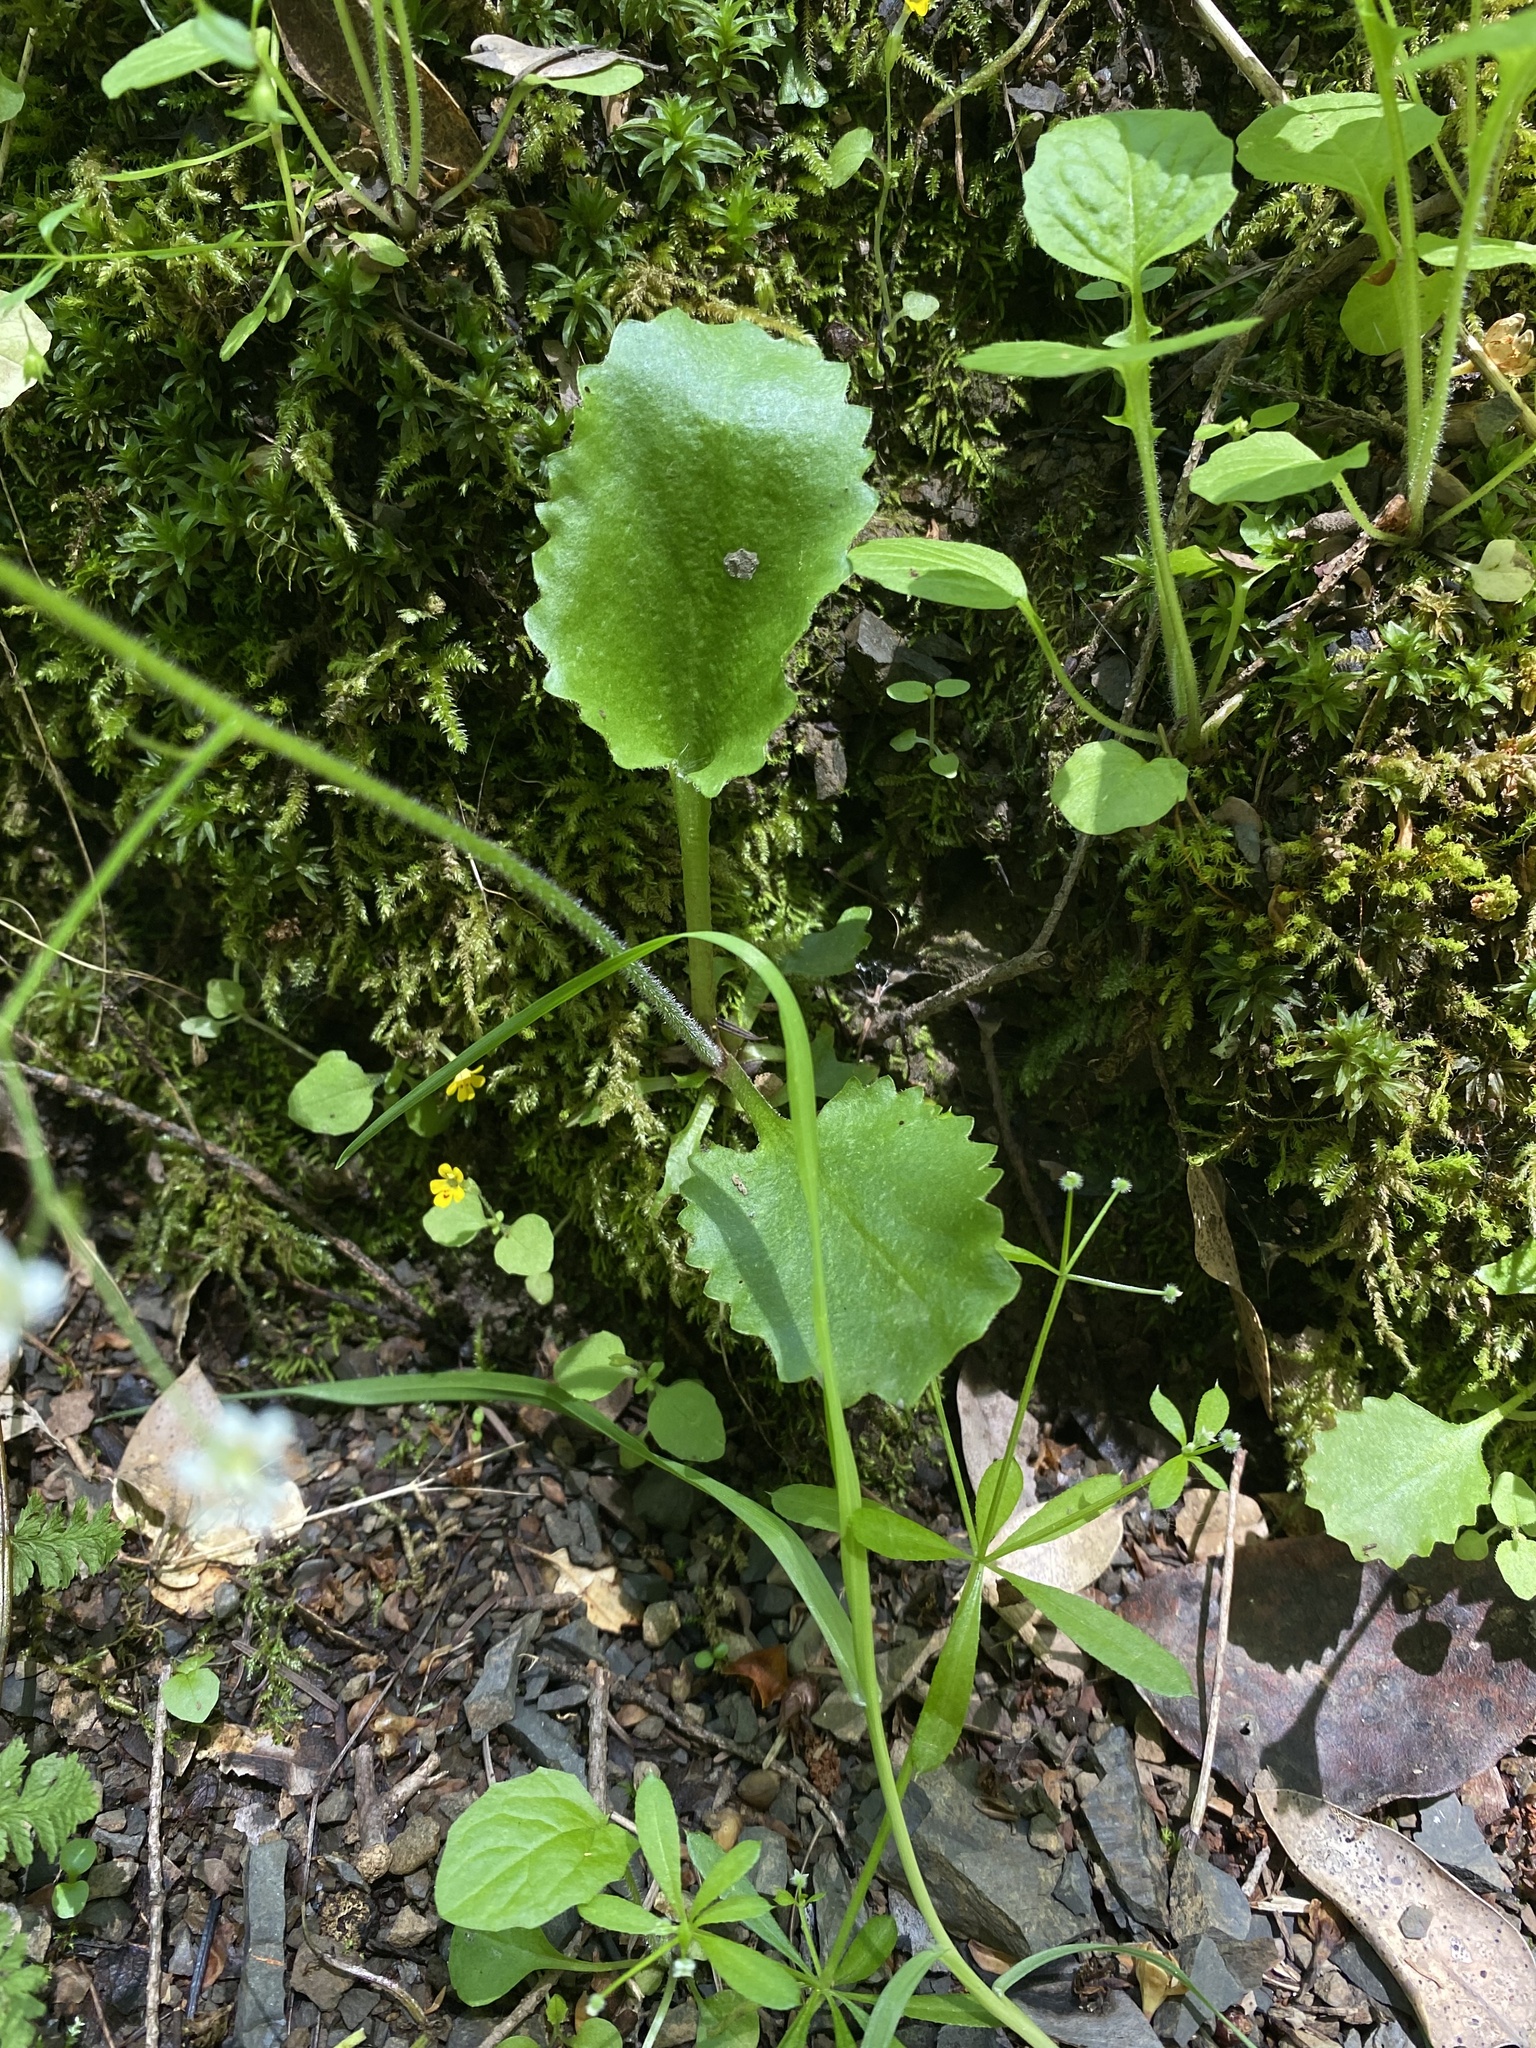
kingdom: Plantae
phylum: Tracheophyta
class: Magnoliopsida
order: Saxifragales
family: Saxifragaceae
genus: Micranthes
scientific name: Micranthes marshallii
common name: Marshall's saxifrage
